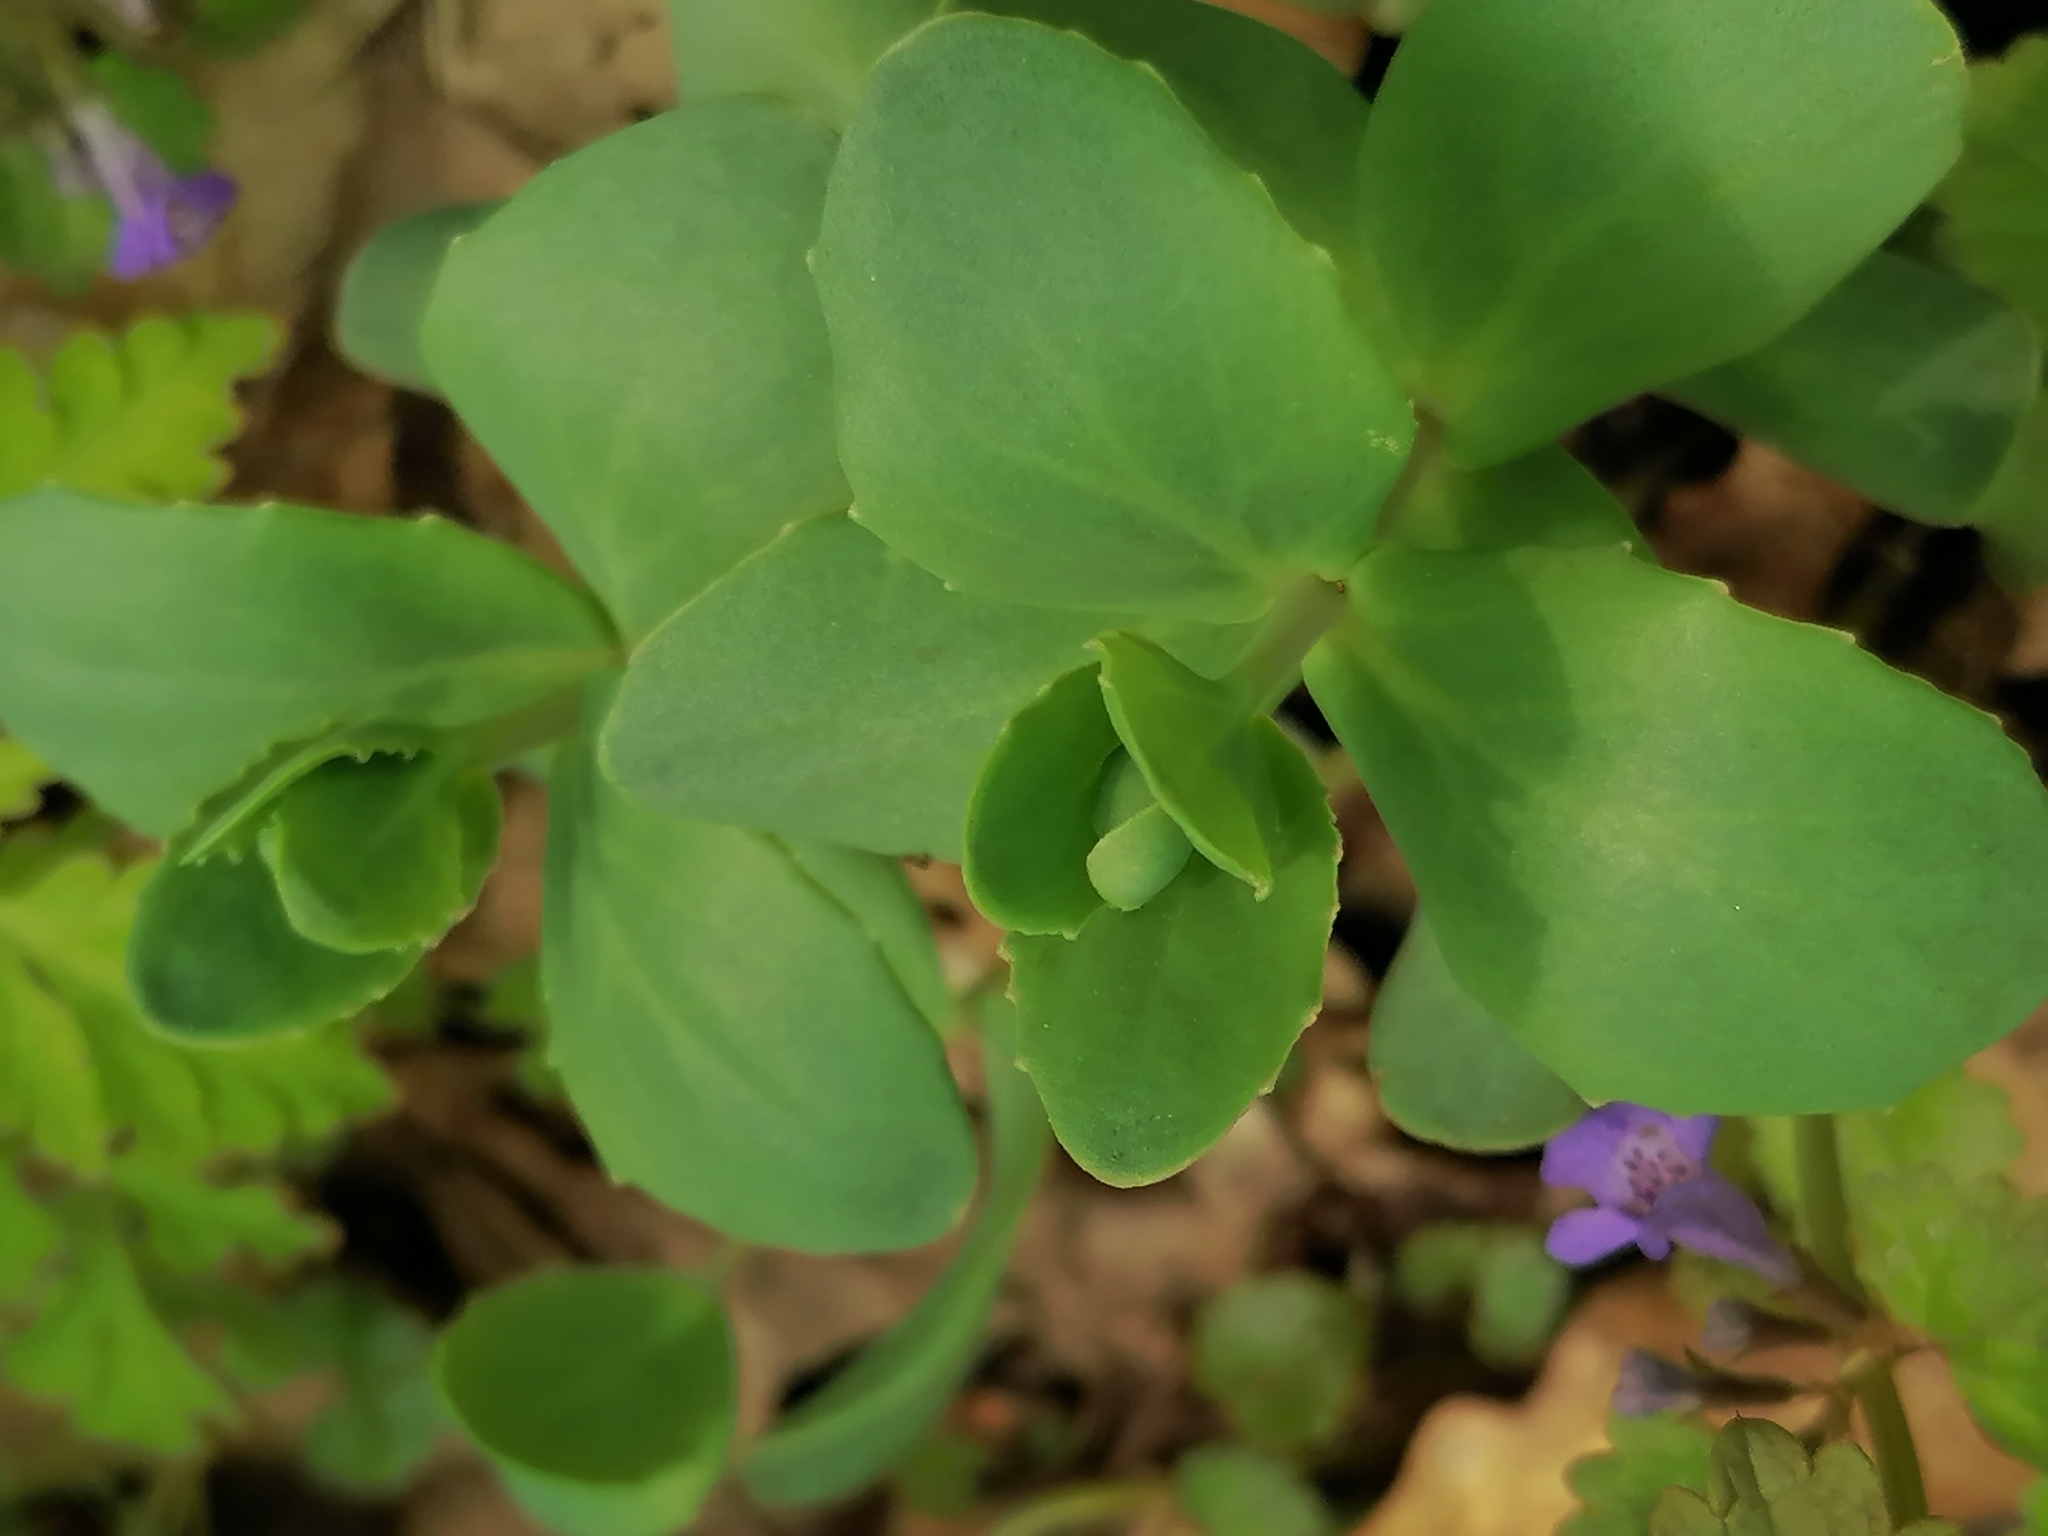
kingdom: Plantae
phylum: Tracheophyta
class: Magnoliopsida
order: Saxifragales
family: Crassulaceae
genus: Hylotelephium
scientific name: Hylotelephium maximum
